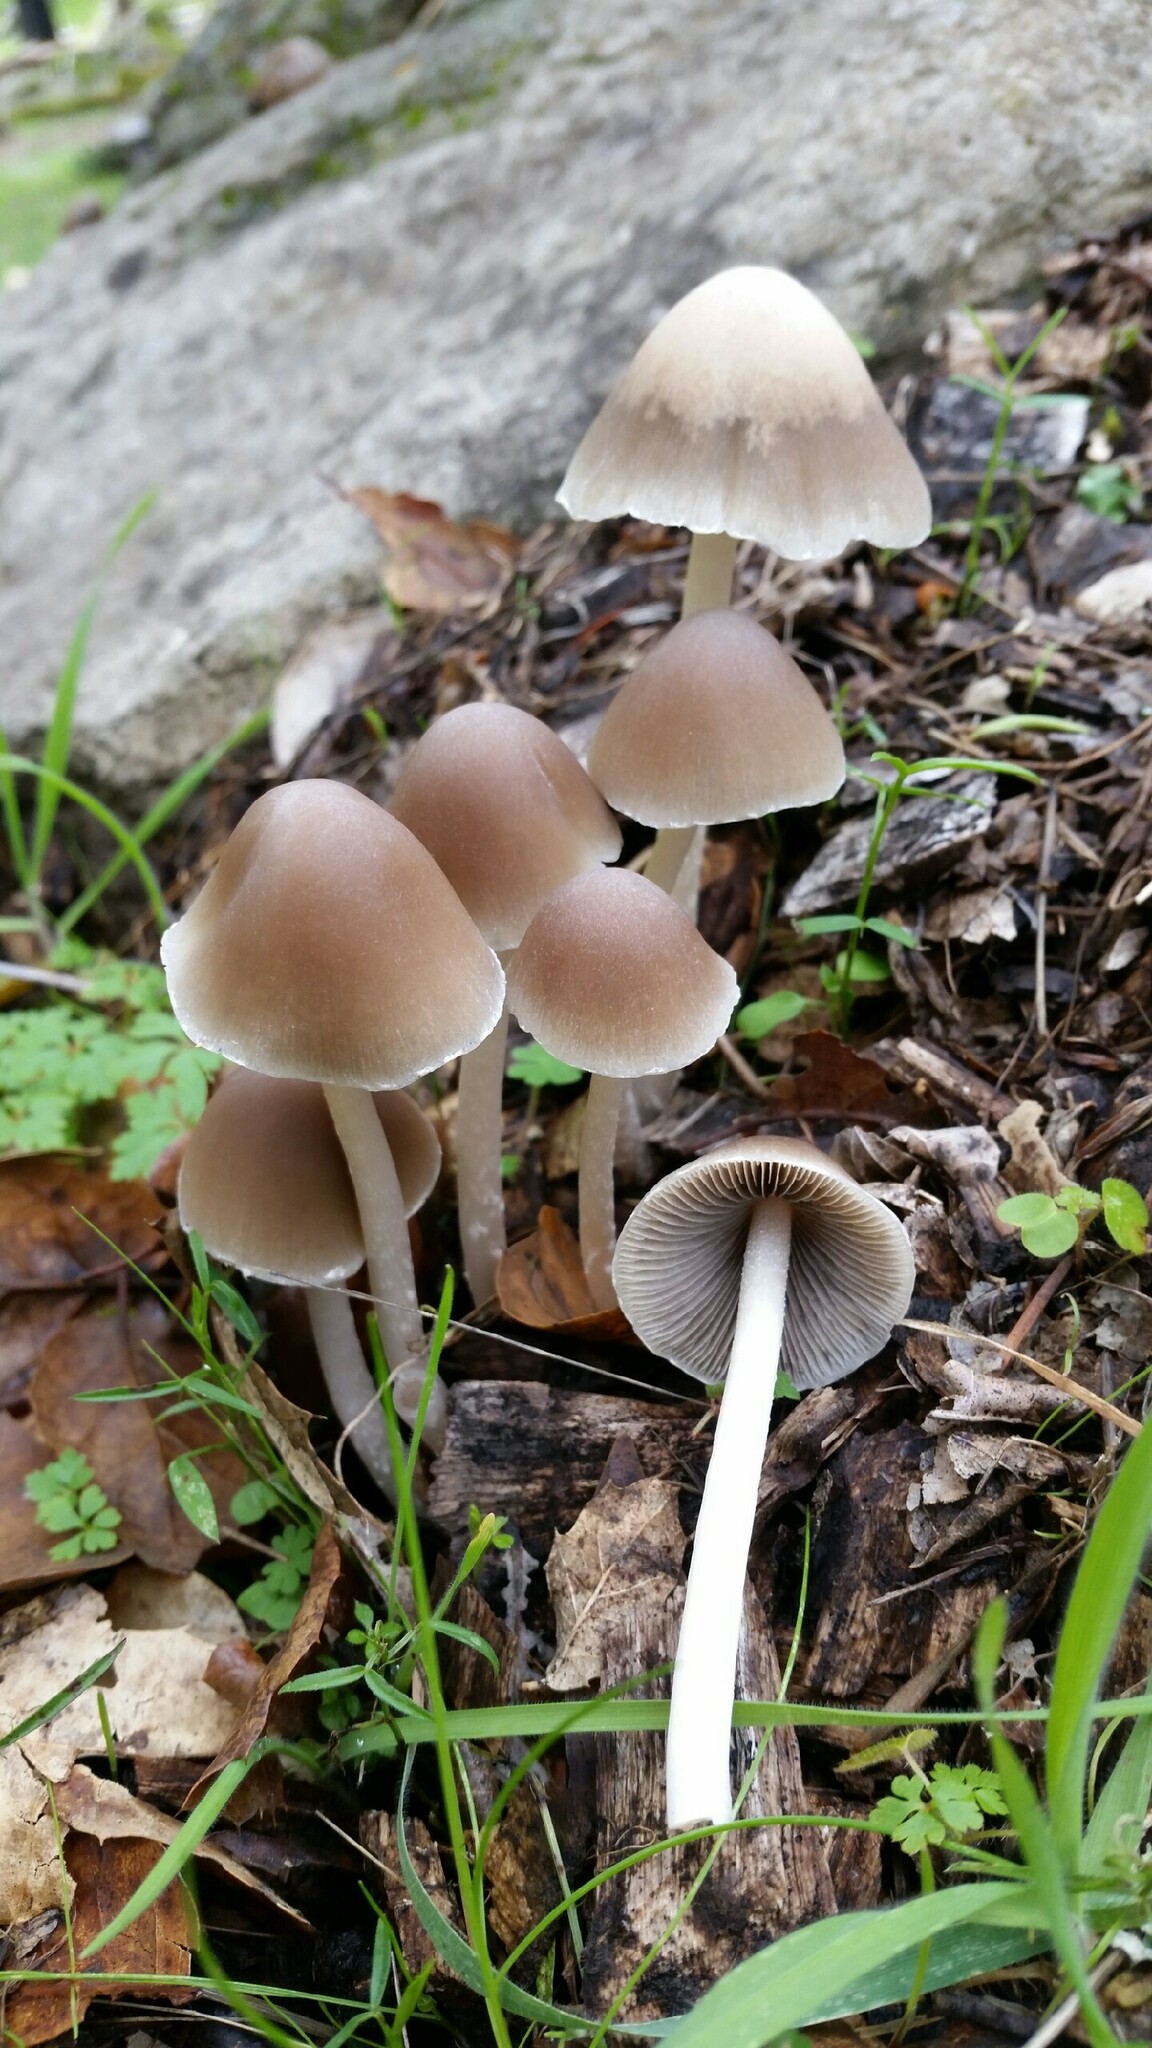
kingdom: Fungi
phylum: Basidiomycota
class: Agaricomycetes
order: Agaricales
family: Psathyrellaceae
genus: Psathyrella
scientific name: Psathyrella longipes
